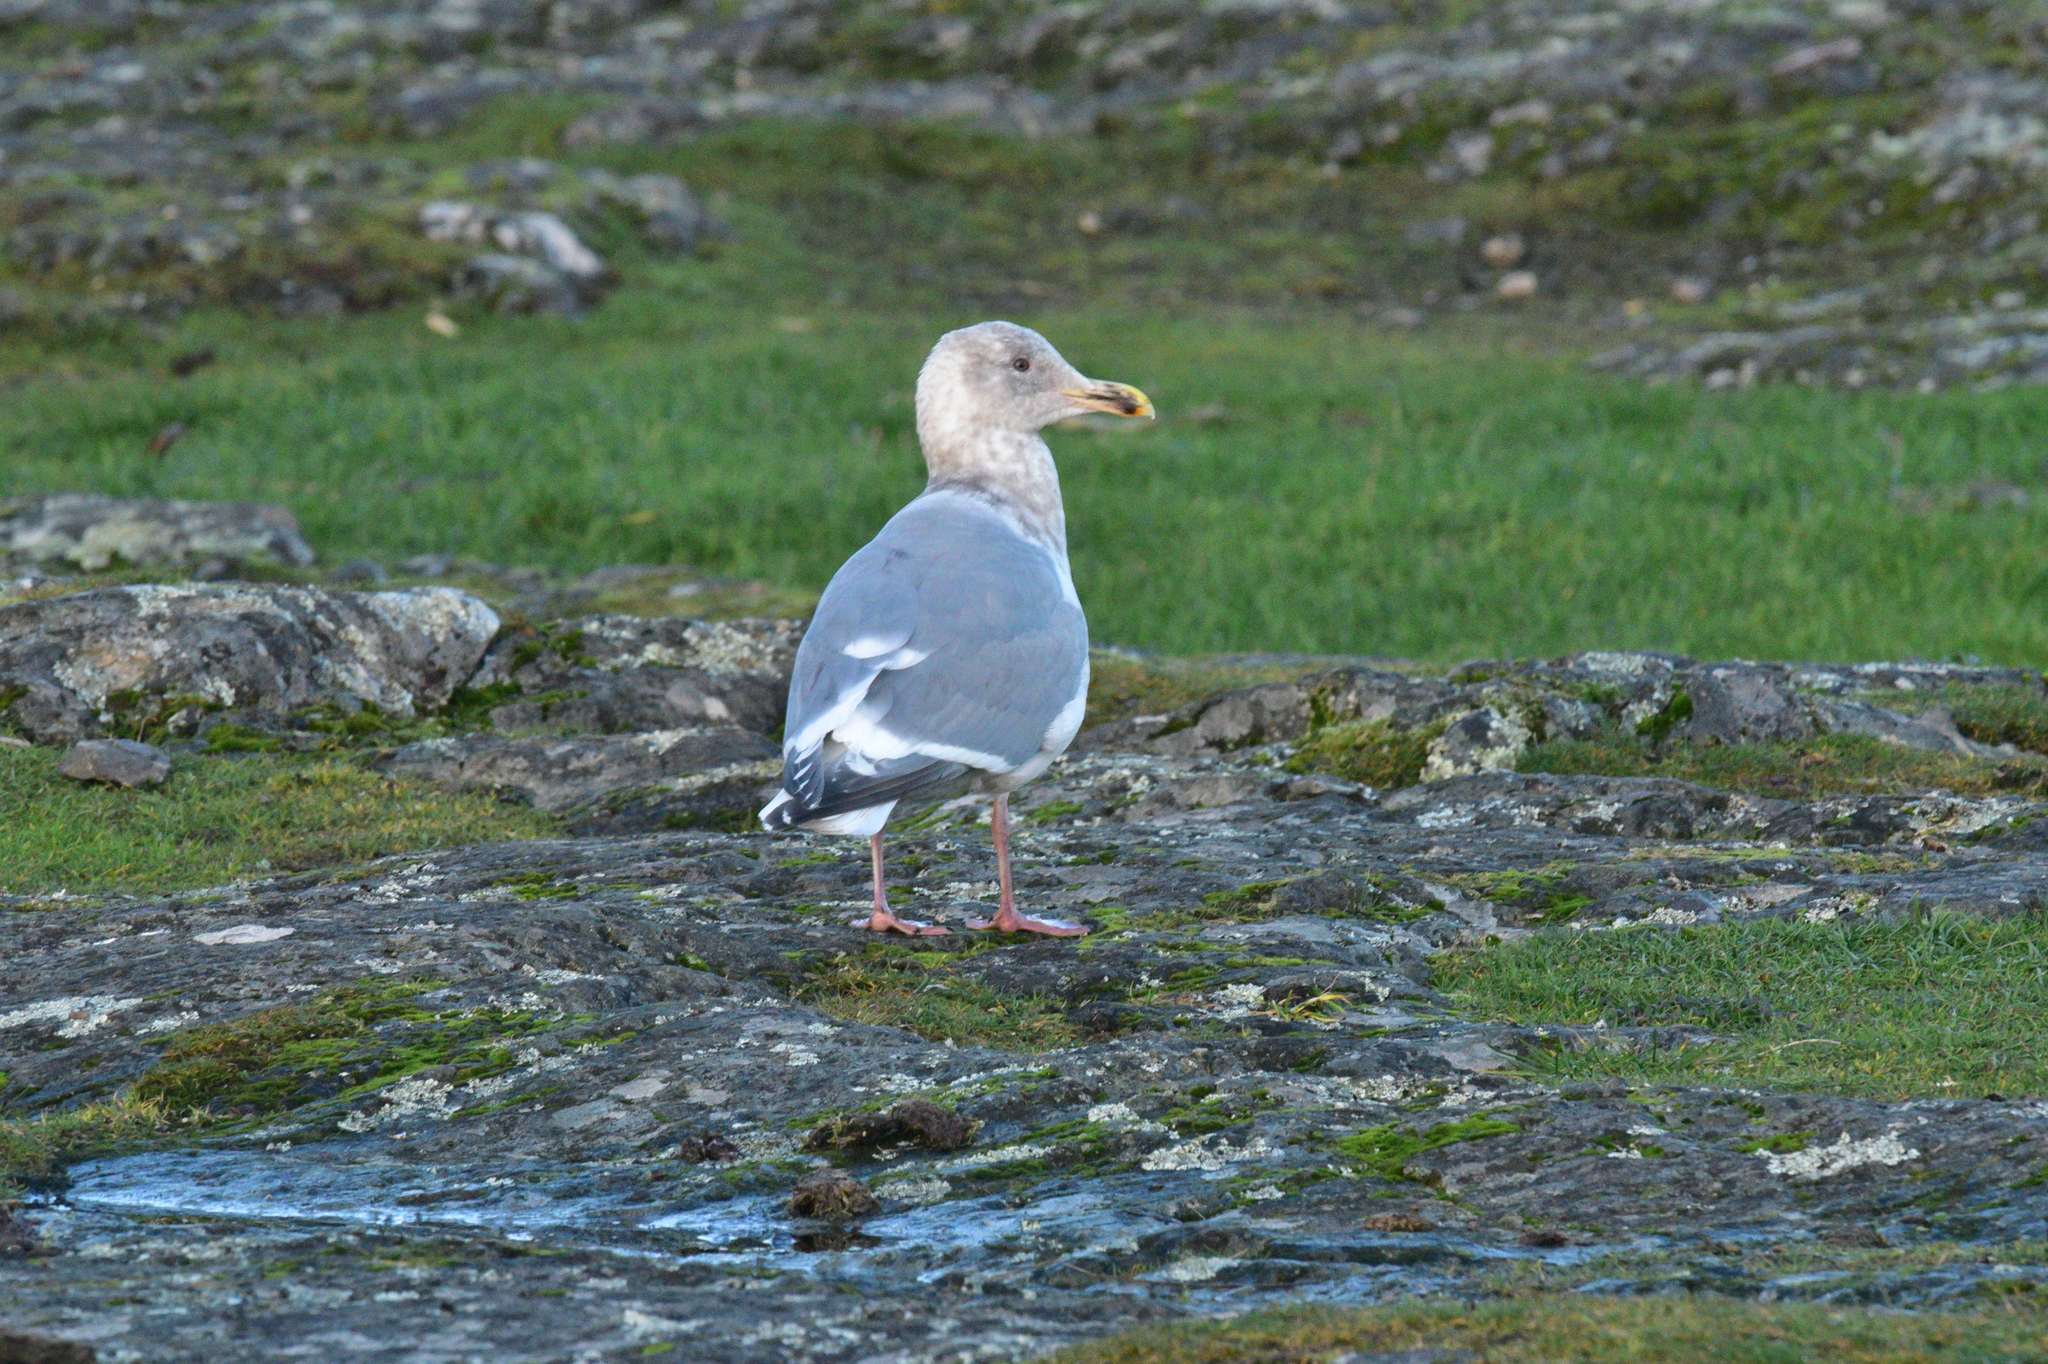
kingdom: Animalia
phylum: Chordata
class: Aves
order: Charadriiformes
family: Laridae
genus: Larus
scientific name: Larus
